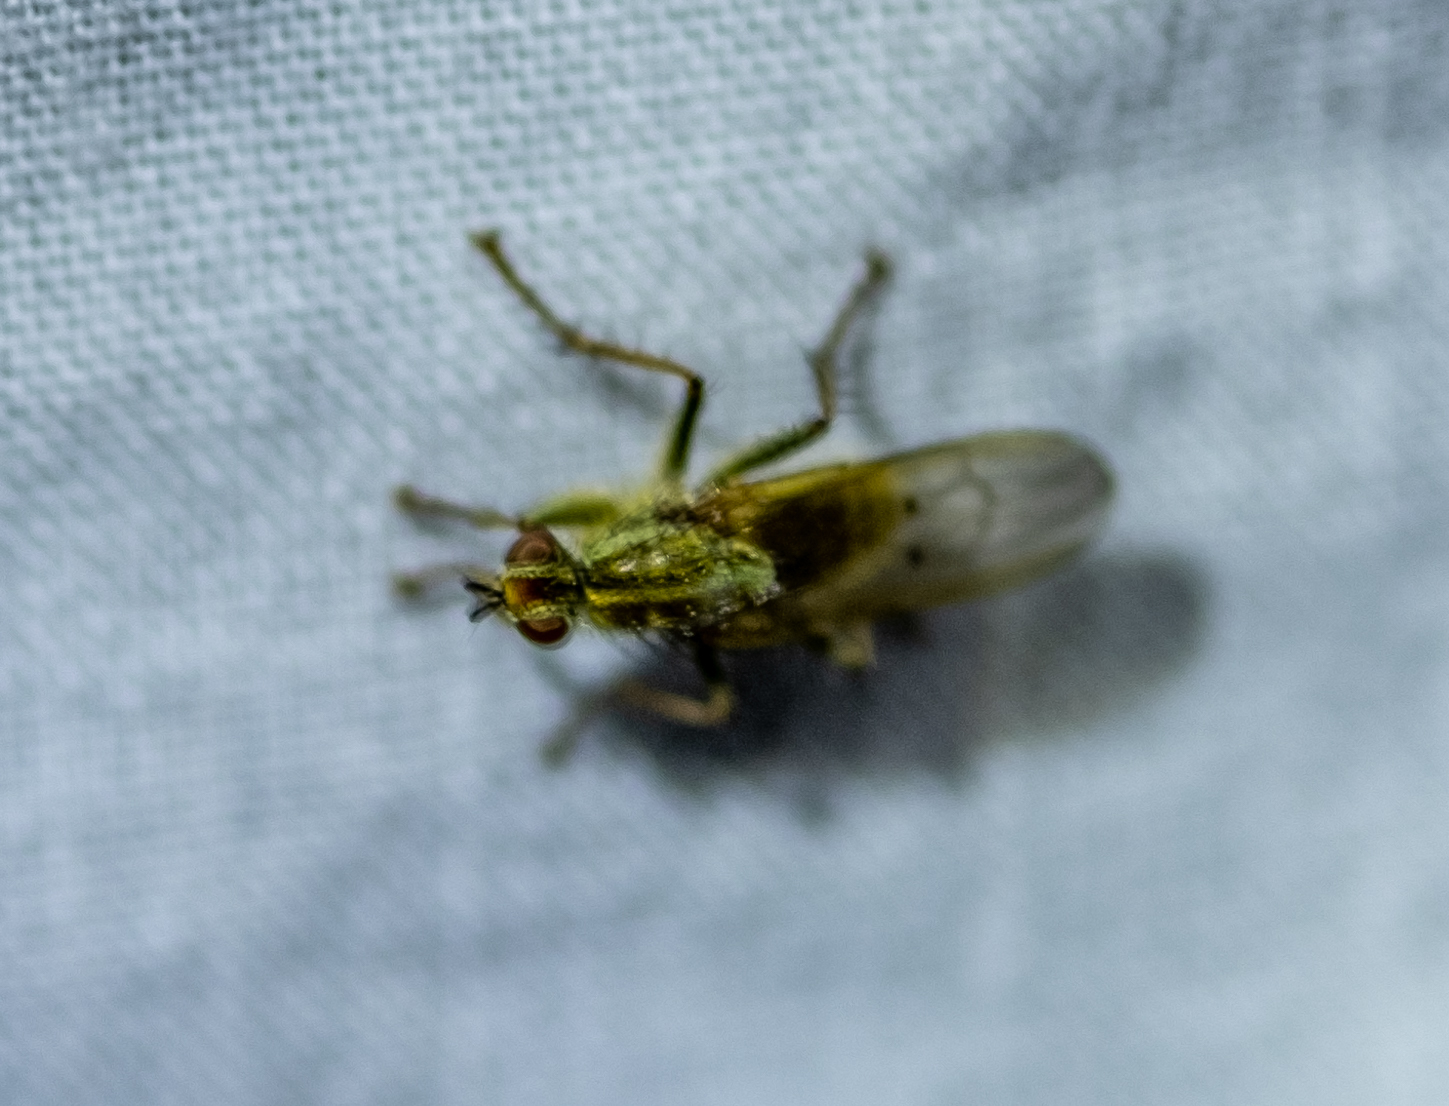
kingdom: Animalia
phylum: Arthropoda
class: Insecta
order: Diptera
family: Scathophagidae
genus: Scathophaga
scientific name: Scathophaga stercoraria
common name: Yellow dung fly
